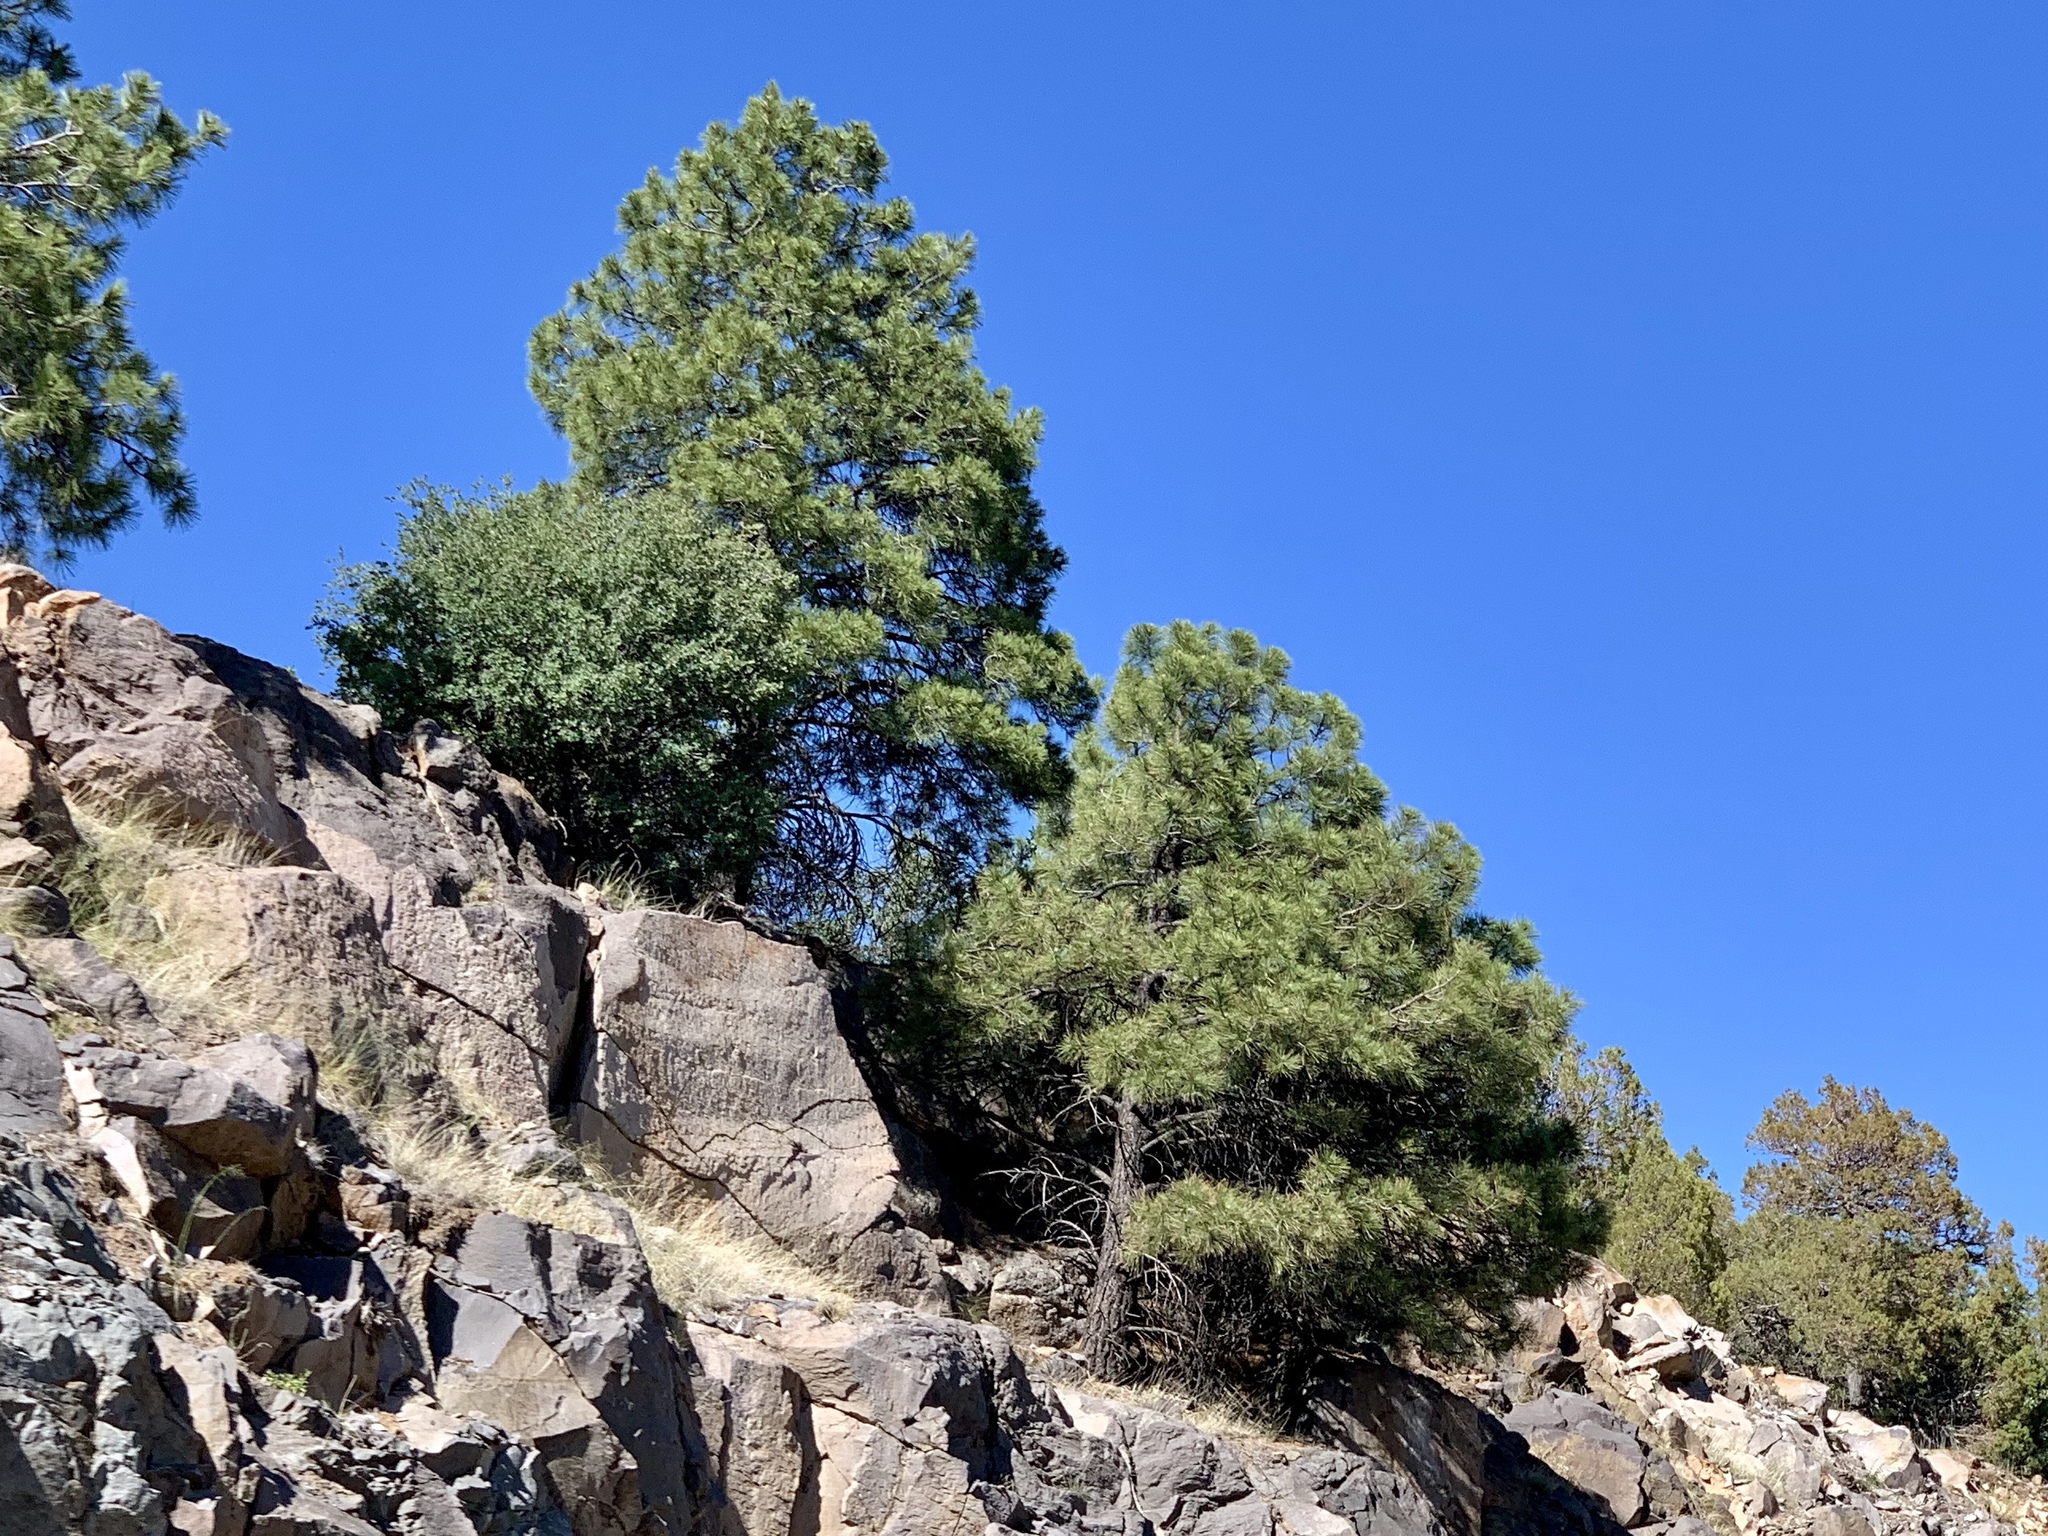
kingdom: Plantae
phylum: Tracheophyta
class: Pinopsida
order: Pinales
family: Pinaceae
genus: Pinus
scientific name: Pinus ponderosa
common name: Western yellow-pine
